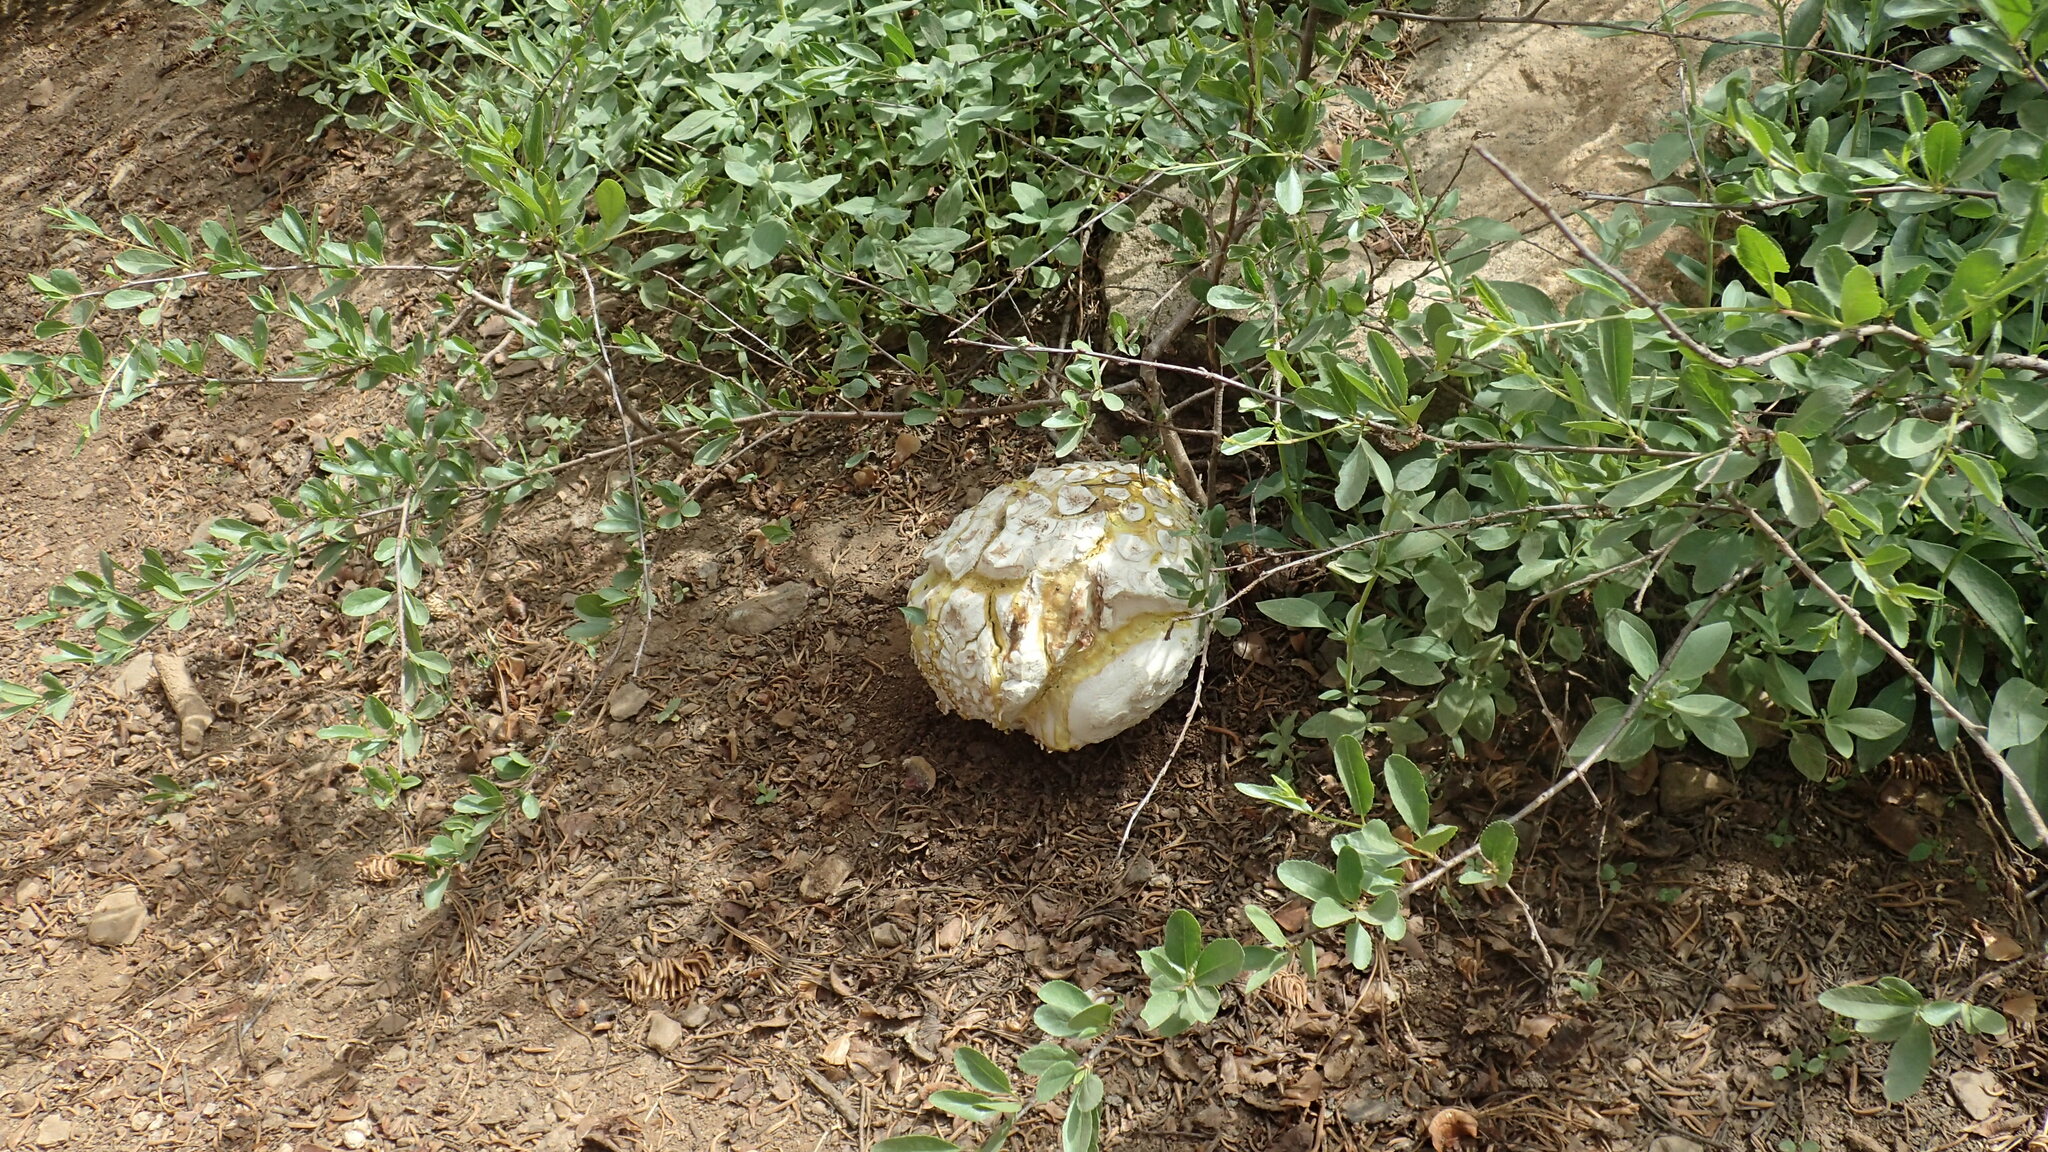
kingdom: Fungi
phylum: Basidiomycota
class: Agaricomycetes
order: Agaricales
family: Lycoperdaceae
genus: Calbovista
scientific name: Calbovista subsculpta
